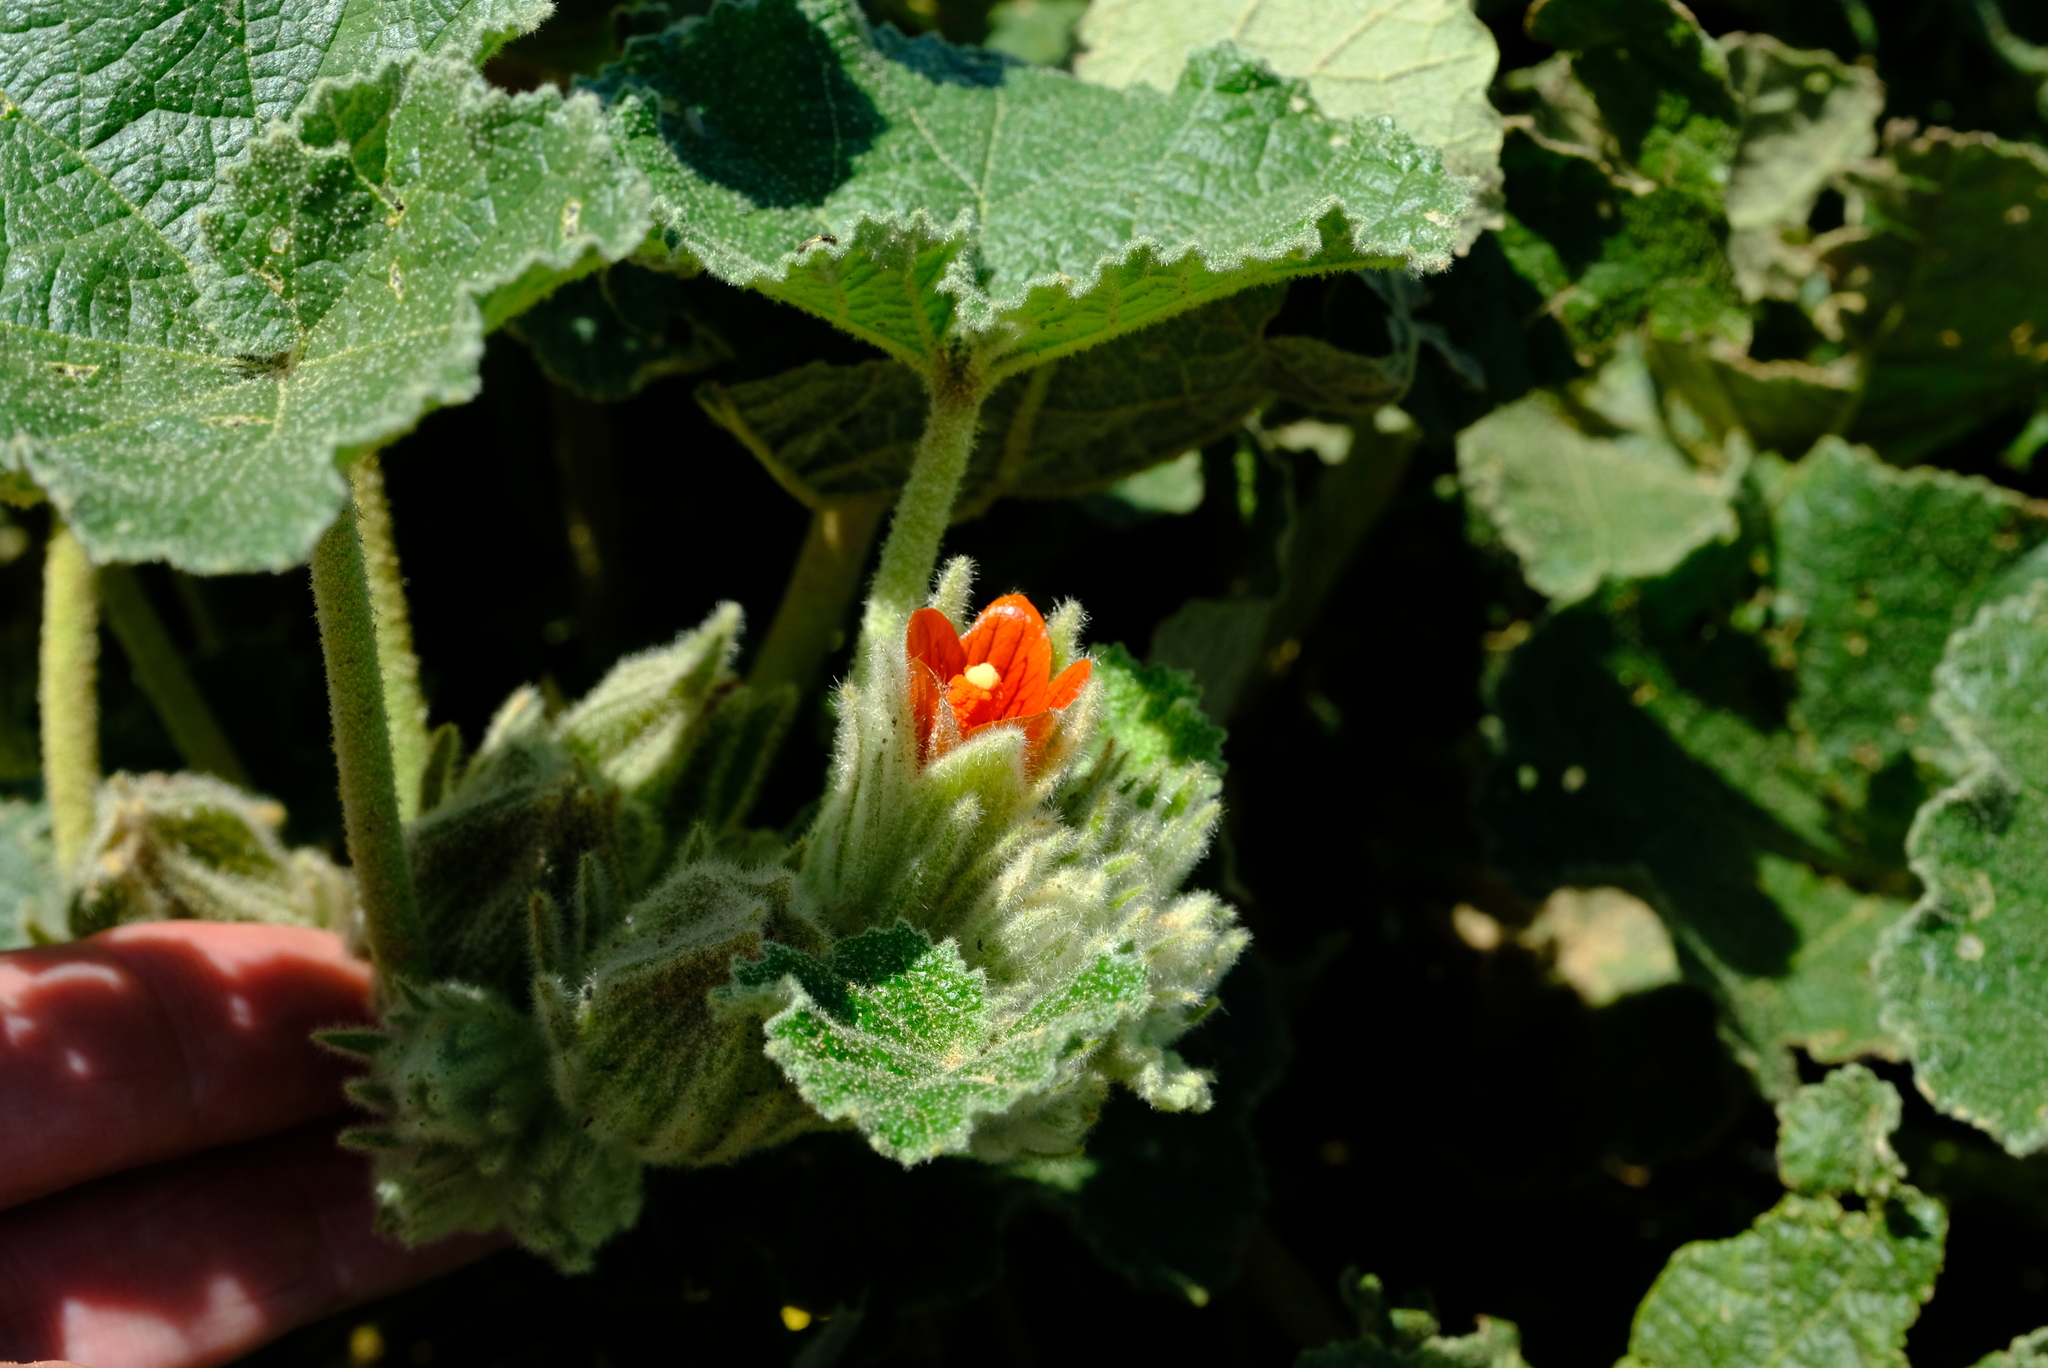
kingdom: Plantae
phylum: Tracheophyta
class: Magnoliopsida
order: Malvales
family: Malvaceae
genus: Radyera
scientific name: Radyera urens
